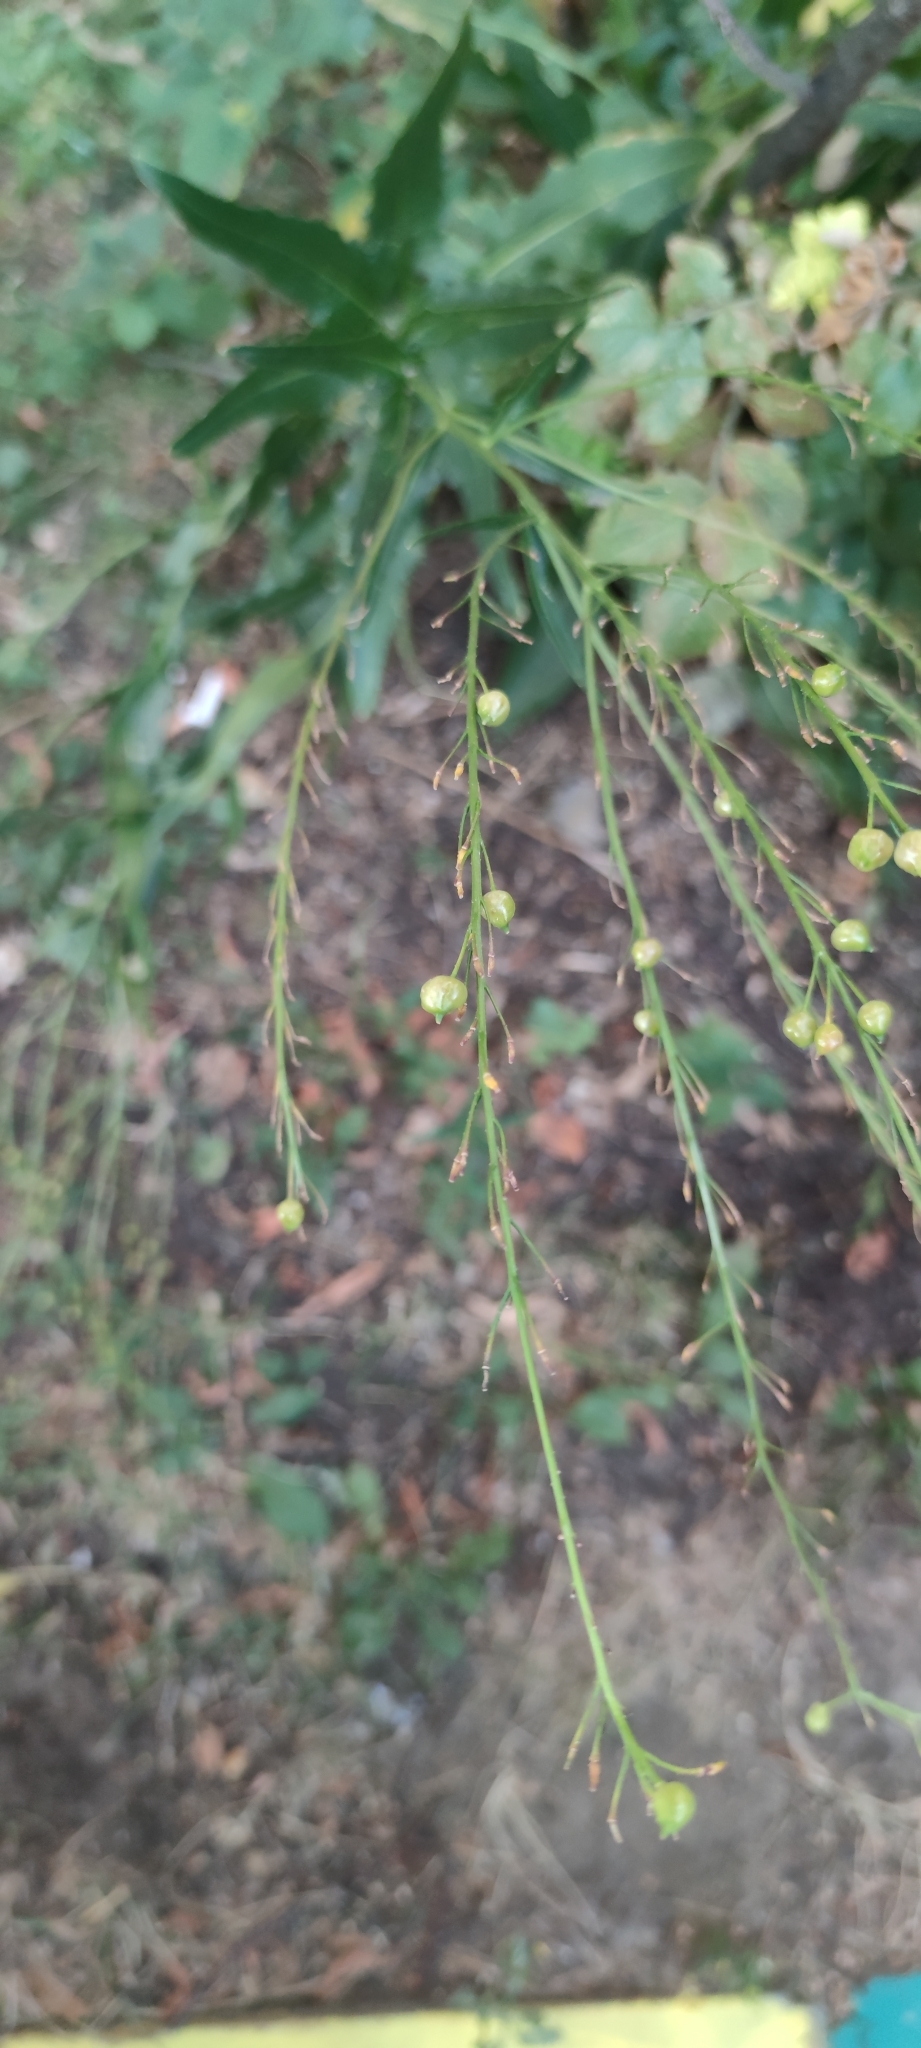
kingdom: Plantae
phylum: Tracheophyta
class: Magnoliopsida
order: Brassicales
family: Brassicaceae
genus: Bunias
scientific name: Bunias orientalis
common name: Warty-cabbage
